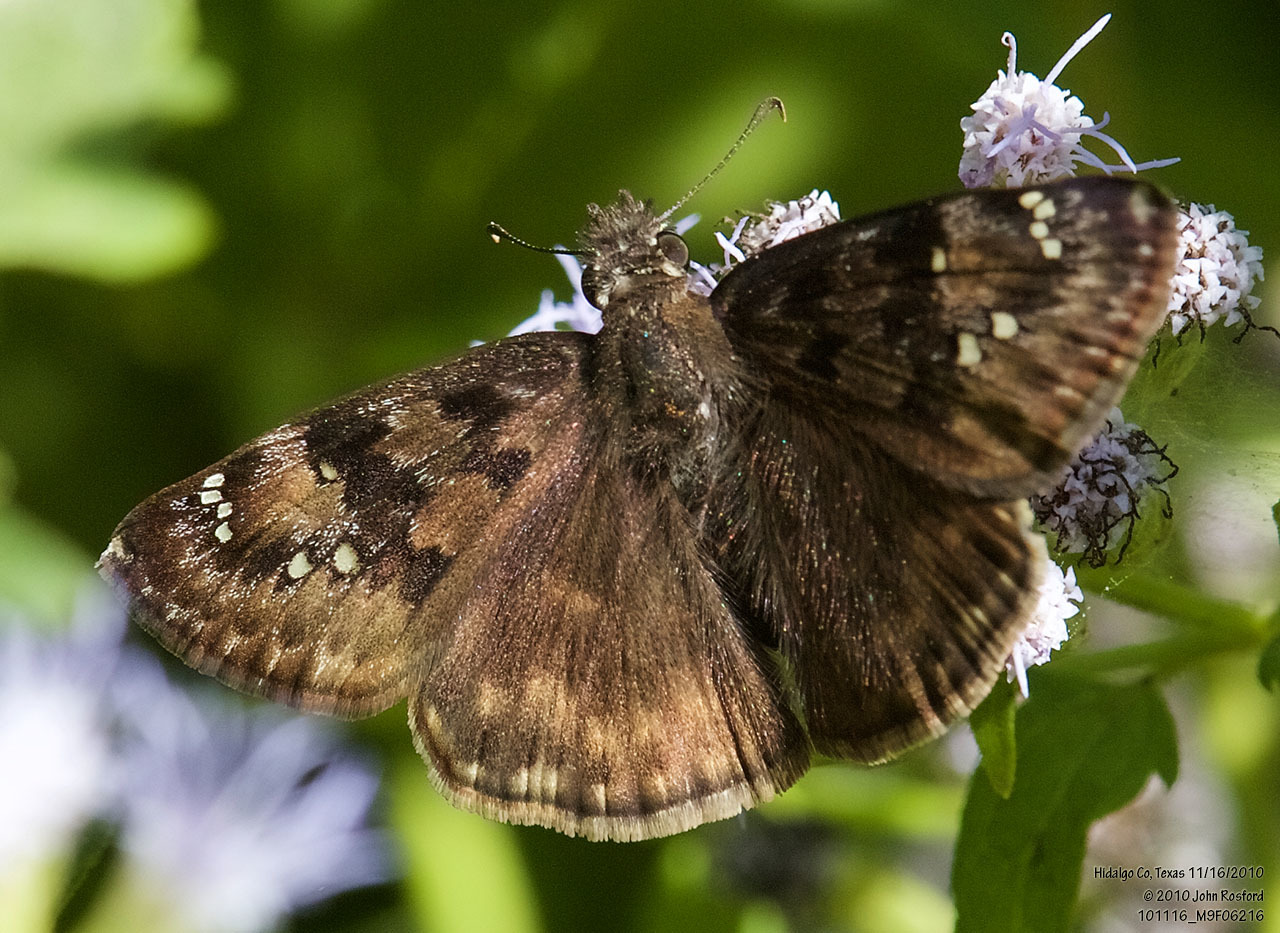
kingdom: Animalia
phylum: Arthropoda
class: Insecta
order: Lepidoptera
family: Hesperiidae
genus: Erynnis
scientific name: Erynnis horatius
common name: Horace's duskywing
